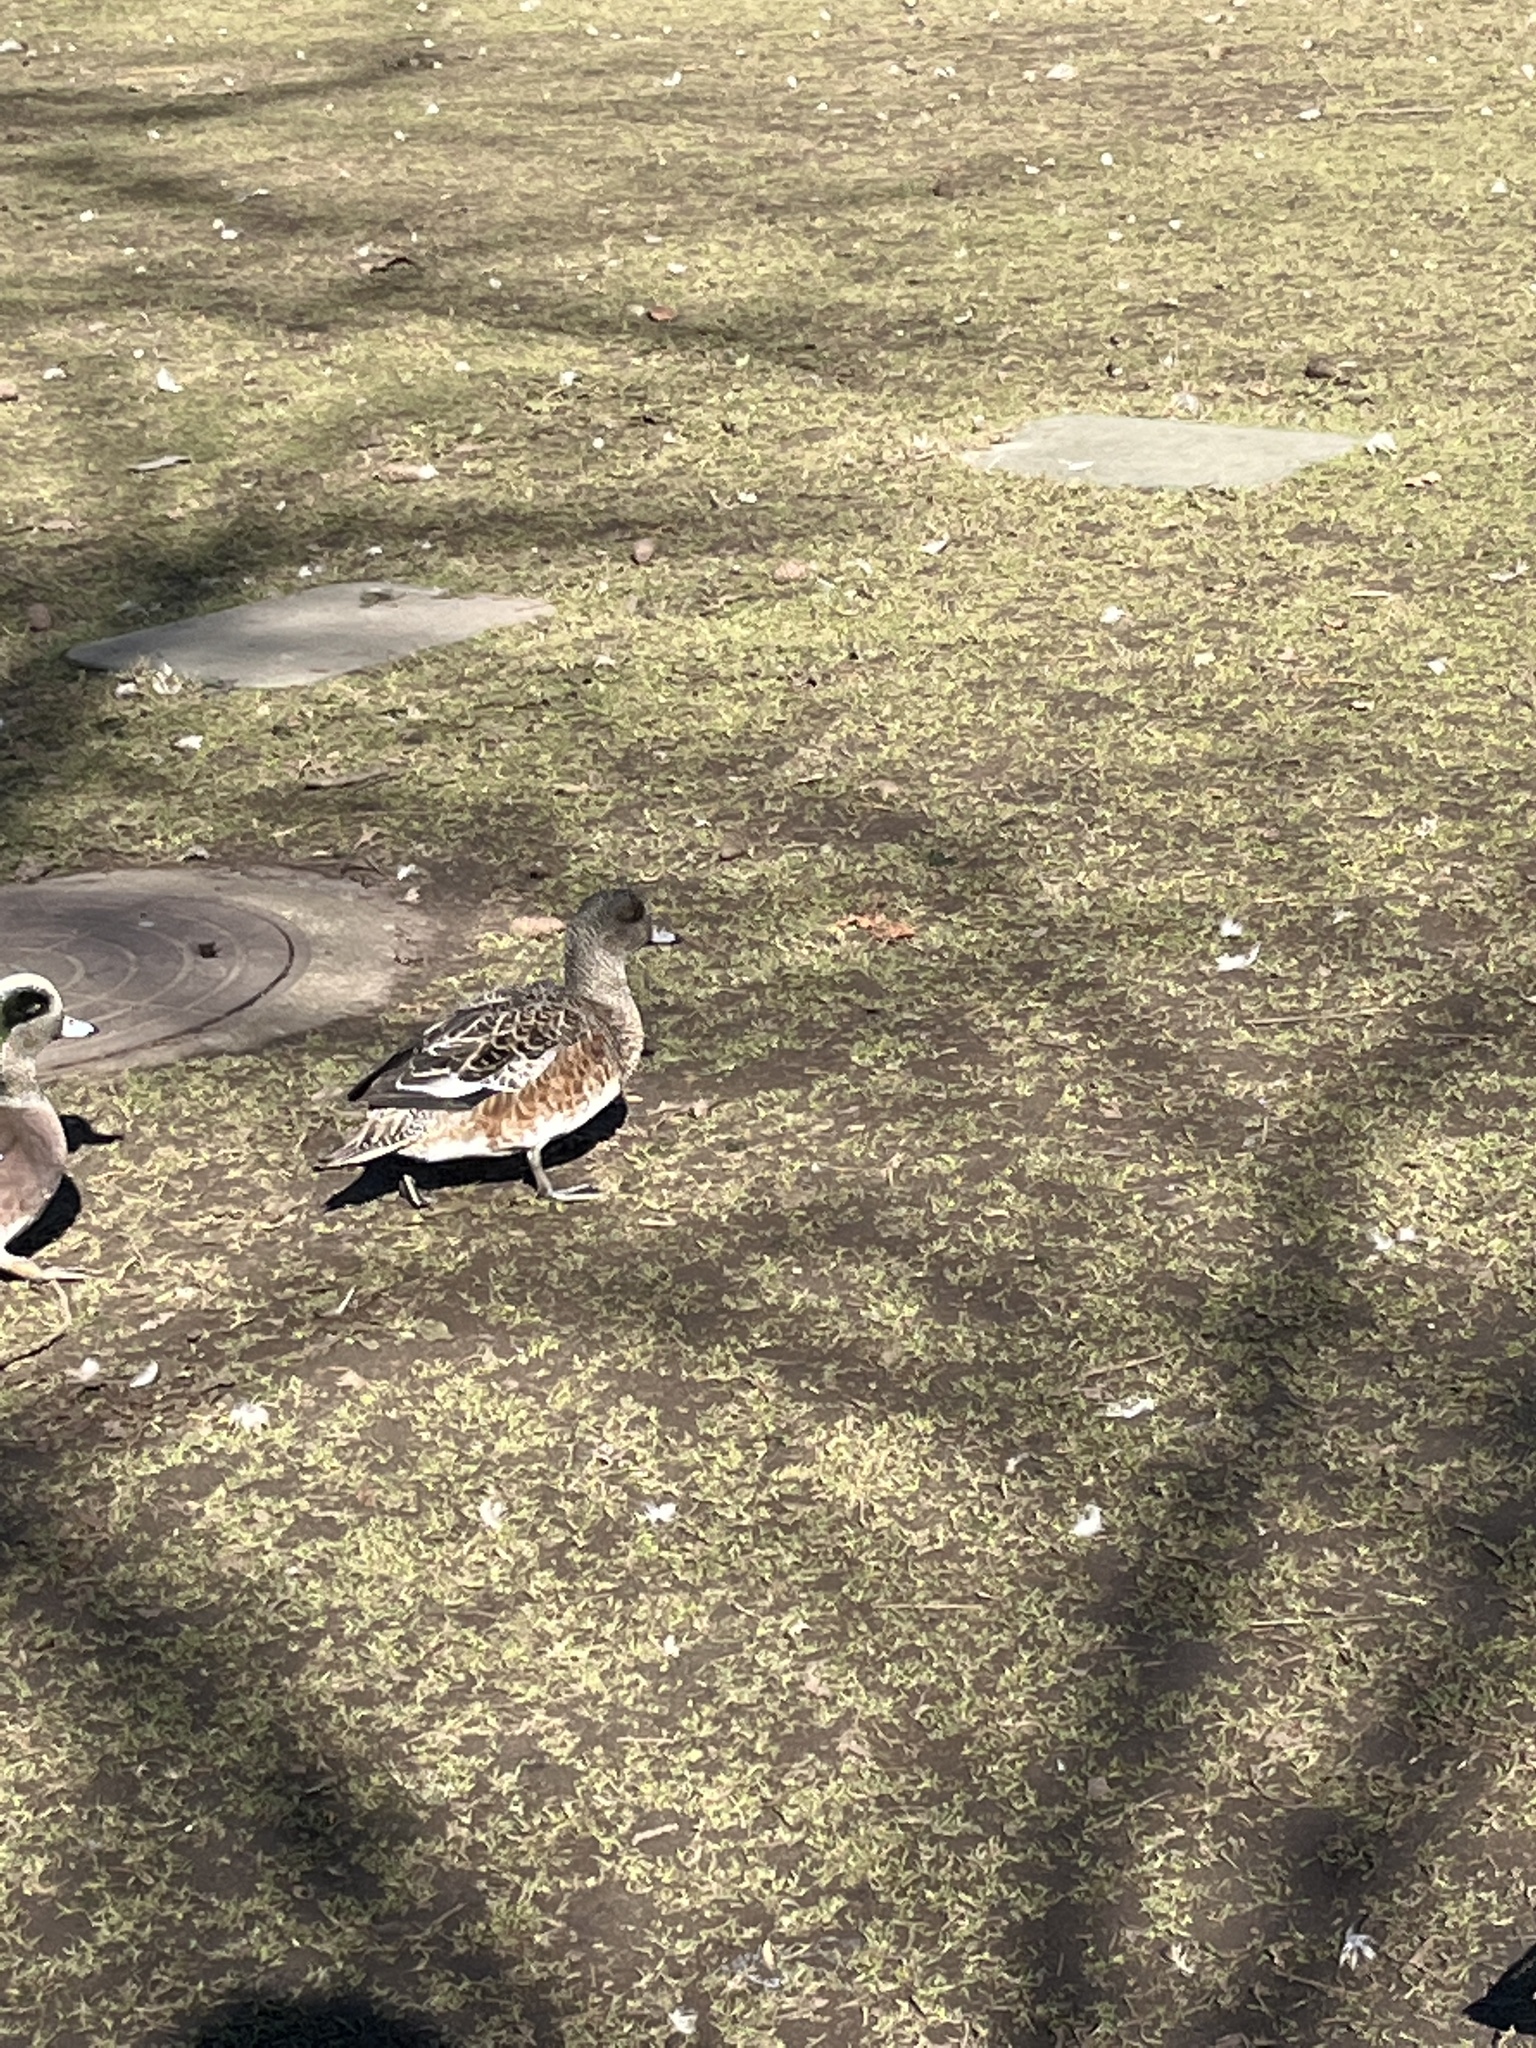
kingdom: Animalia
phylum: Chordata
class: Aves
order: Anseriformes
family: Anatidae
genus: Mareca
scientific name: Mareca americana
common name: American wigeon
